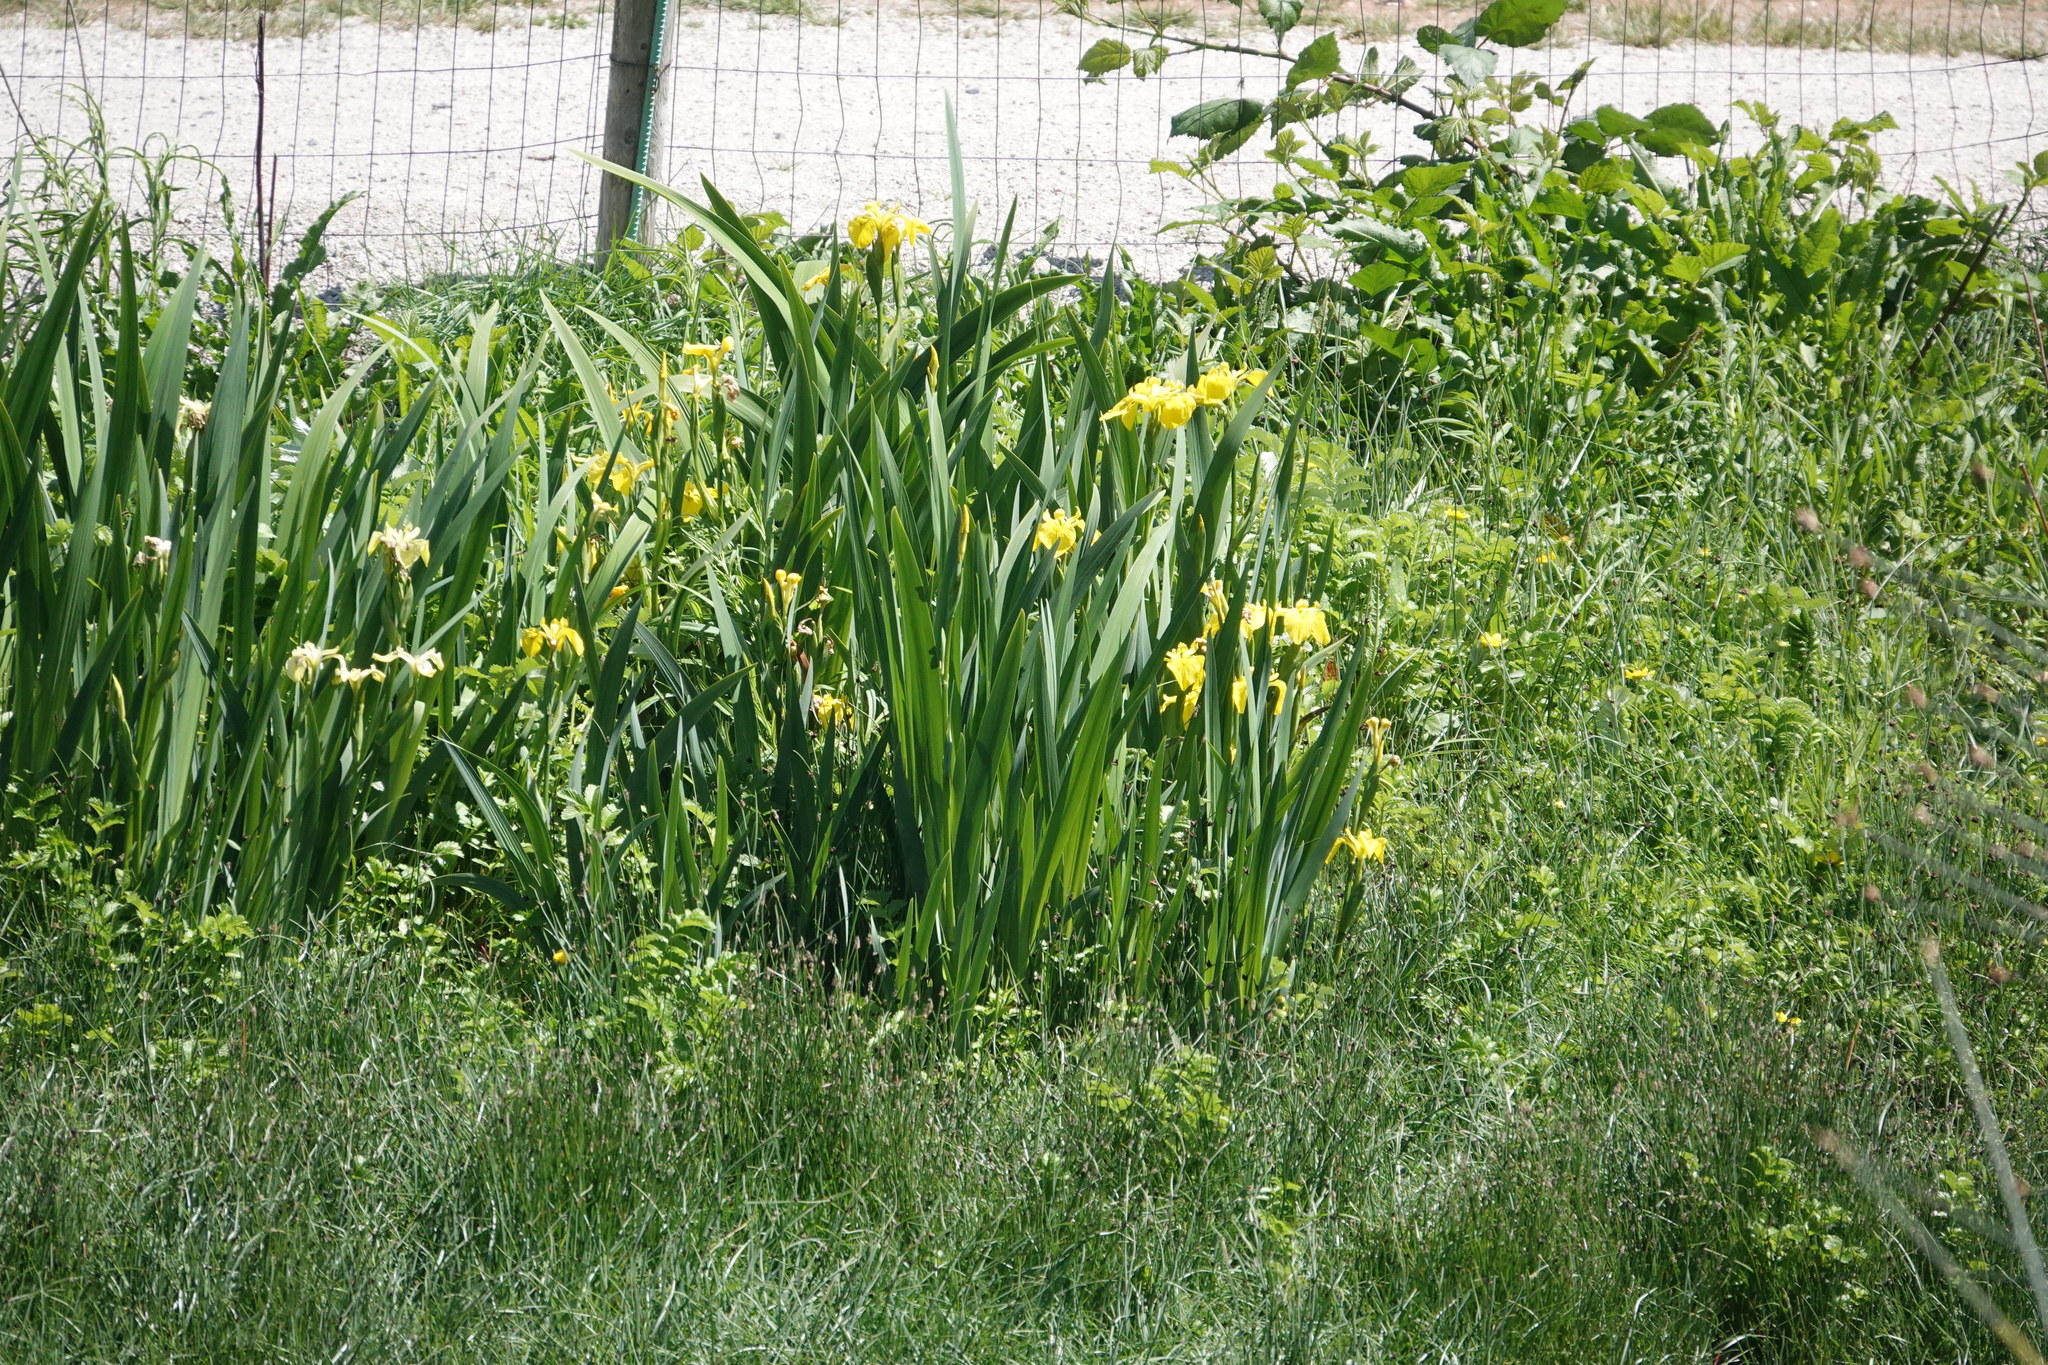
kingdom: Plantae
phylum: Tracheophyta
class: Liliopsida
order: Asparagales
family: Iridaceae
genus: Iris
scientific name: Iris pseudacorus
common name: Yellow flag
